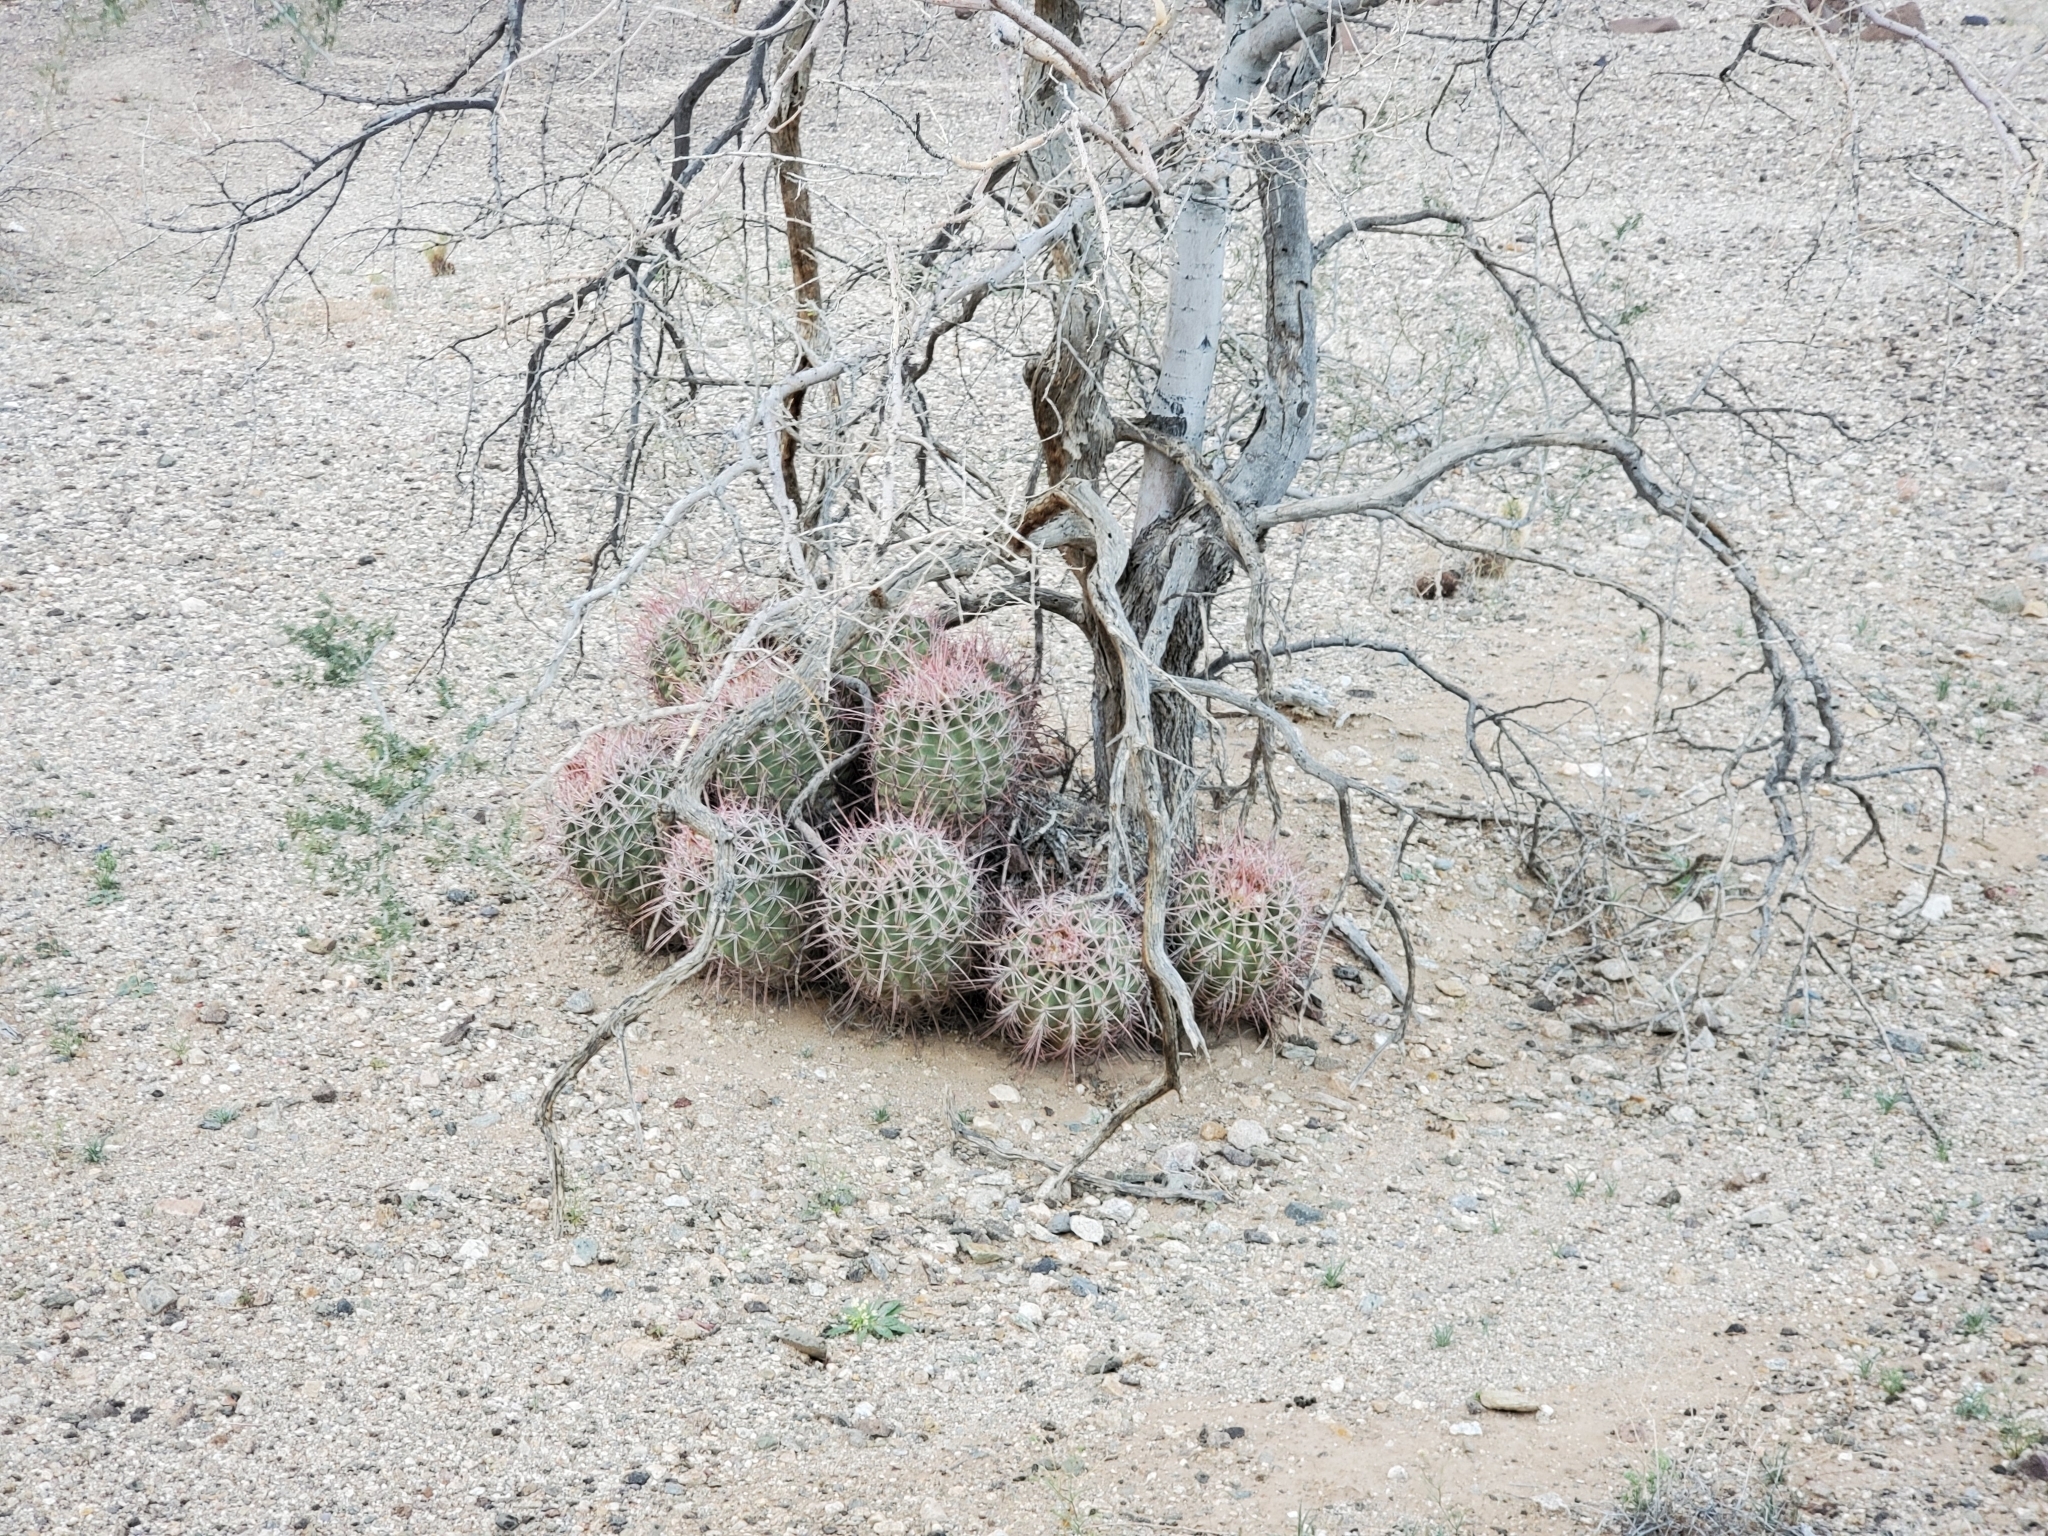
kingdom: Plantae
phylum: Tracheophyta
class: Magnoliopsida
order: Caryophyllales
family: Cactaceae
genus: Echinocactus
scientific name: Echinocactus polycephalus
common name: Cottontop cactus
